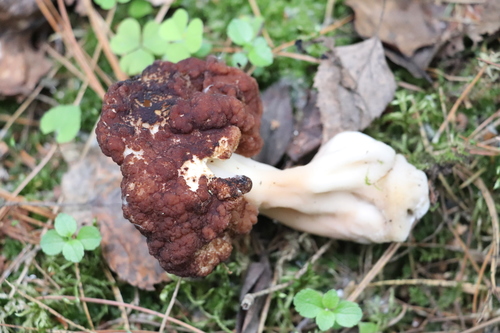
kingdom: Fungi
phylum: Ascomycota
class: Pezizomycetes
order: Pezizales
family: Discinaceae
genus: Gyromitra
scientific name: Gyromitra esculenta
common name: False morel
